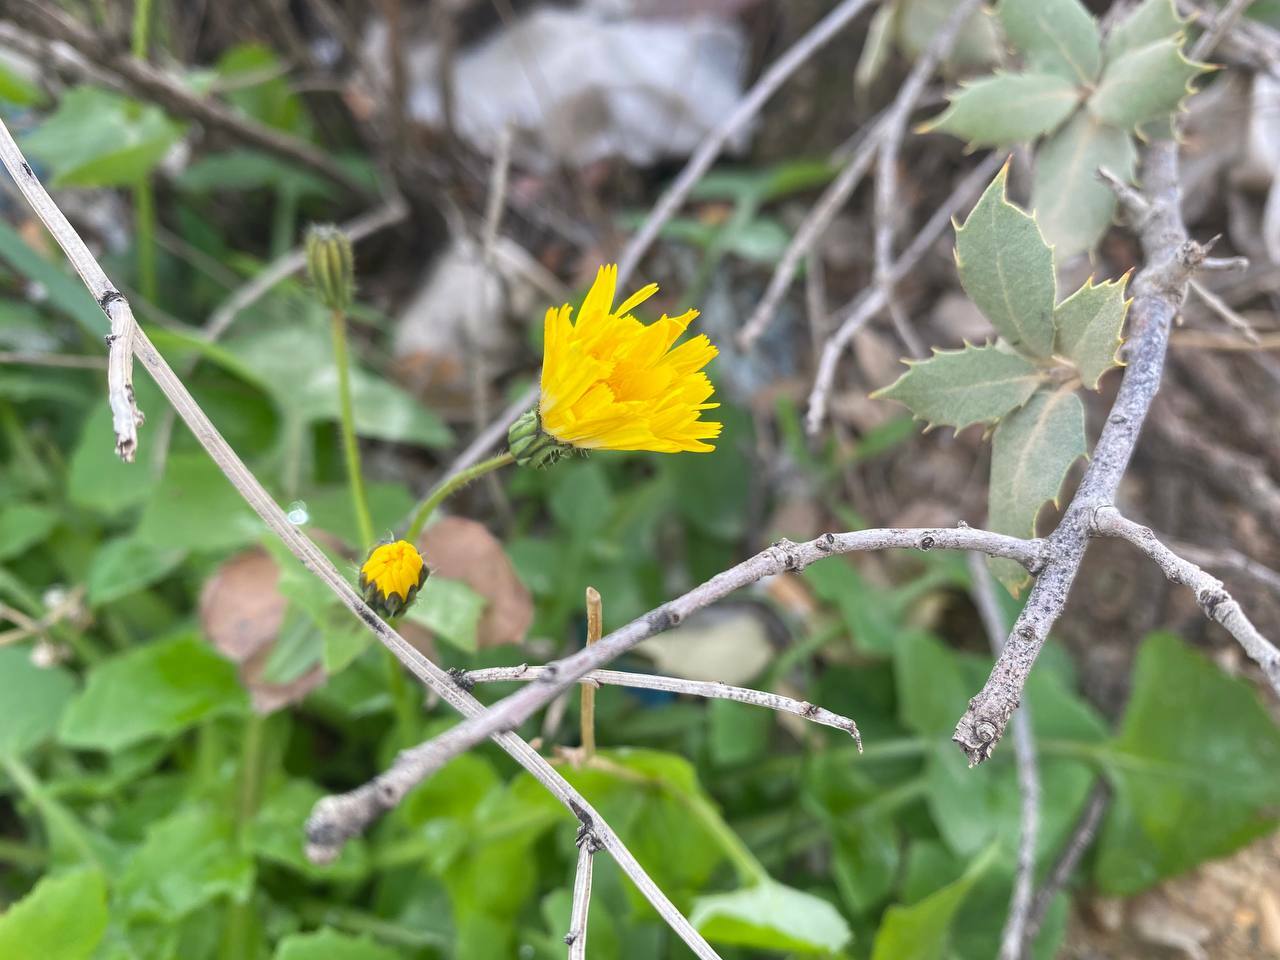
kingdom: Plantae
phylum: Tracheophyta
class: Magnoliopsida
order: Asterales
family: Asteraceae
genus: Sonchus
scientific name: Sonchus tenerrimus
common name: Clammy sowthistle
